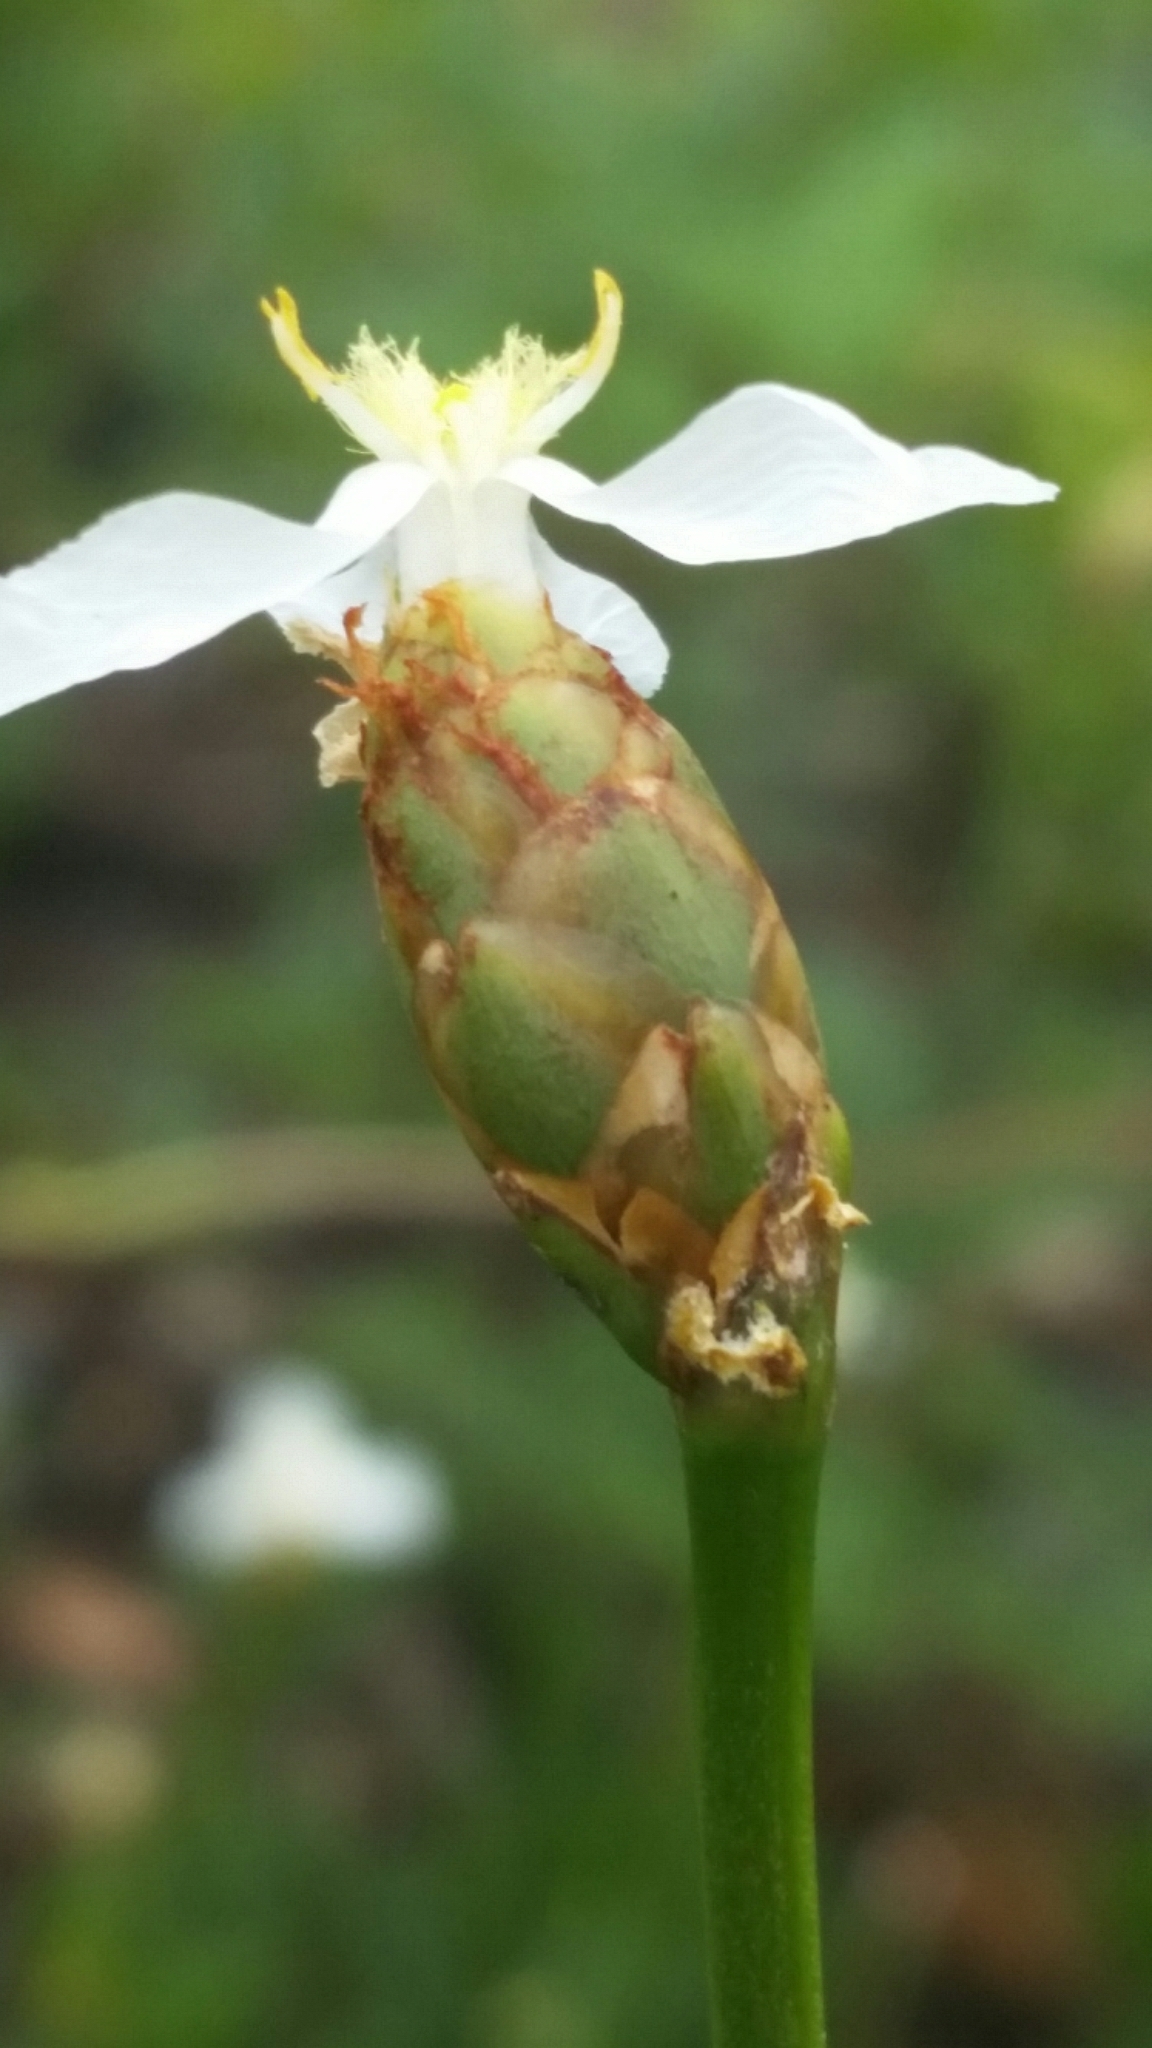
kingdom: Plantae
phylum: Tracheophyta
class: Liliopsida
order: Poales
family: Xyridaceae
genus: Xyris
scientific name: Xyris caroliniana
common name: Carolina yellow-eyed-grass
